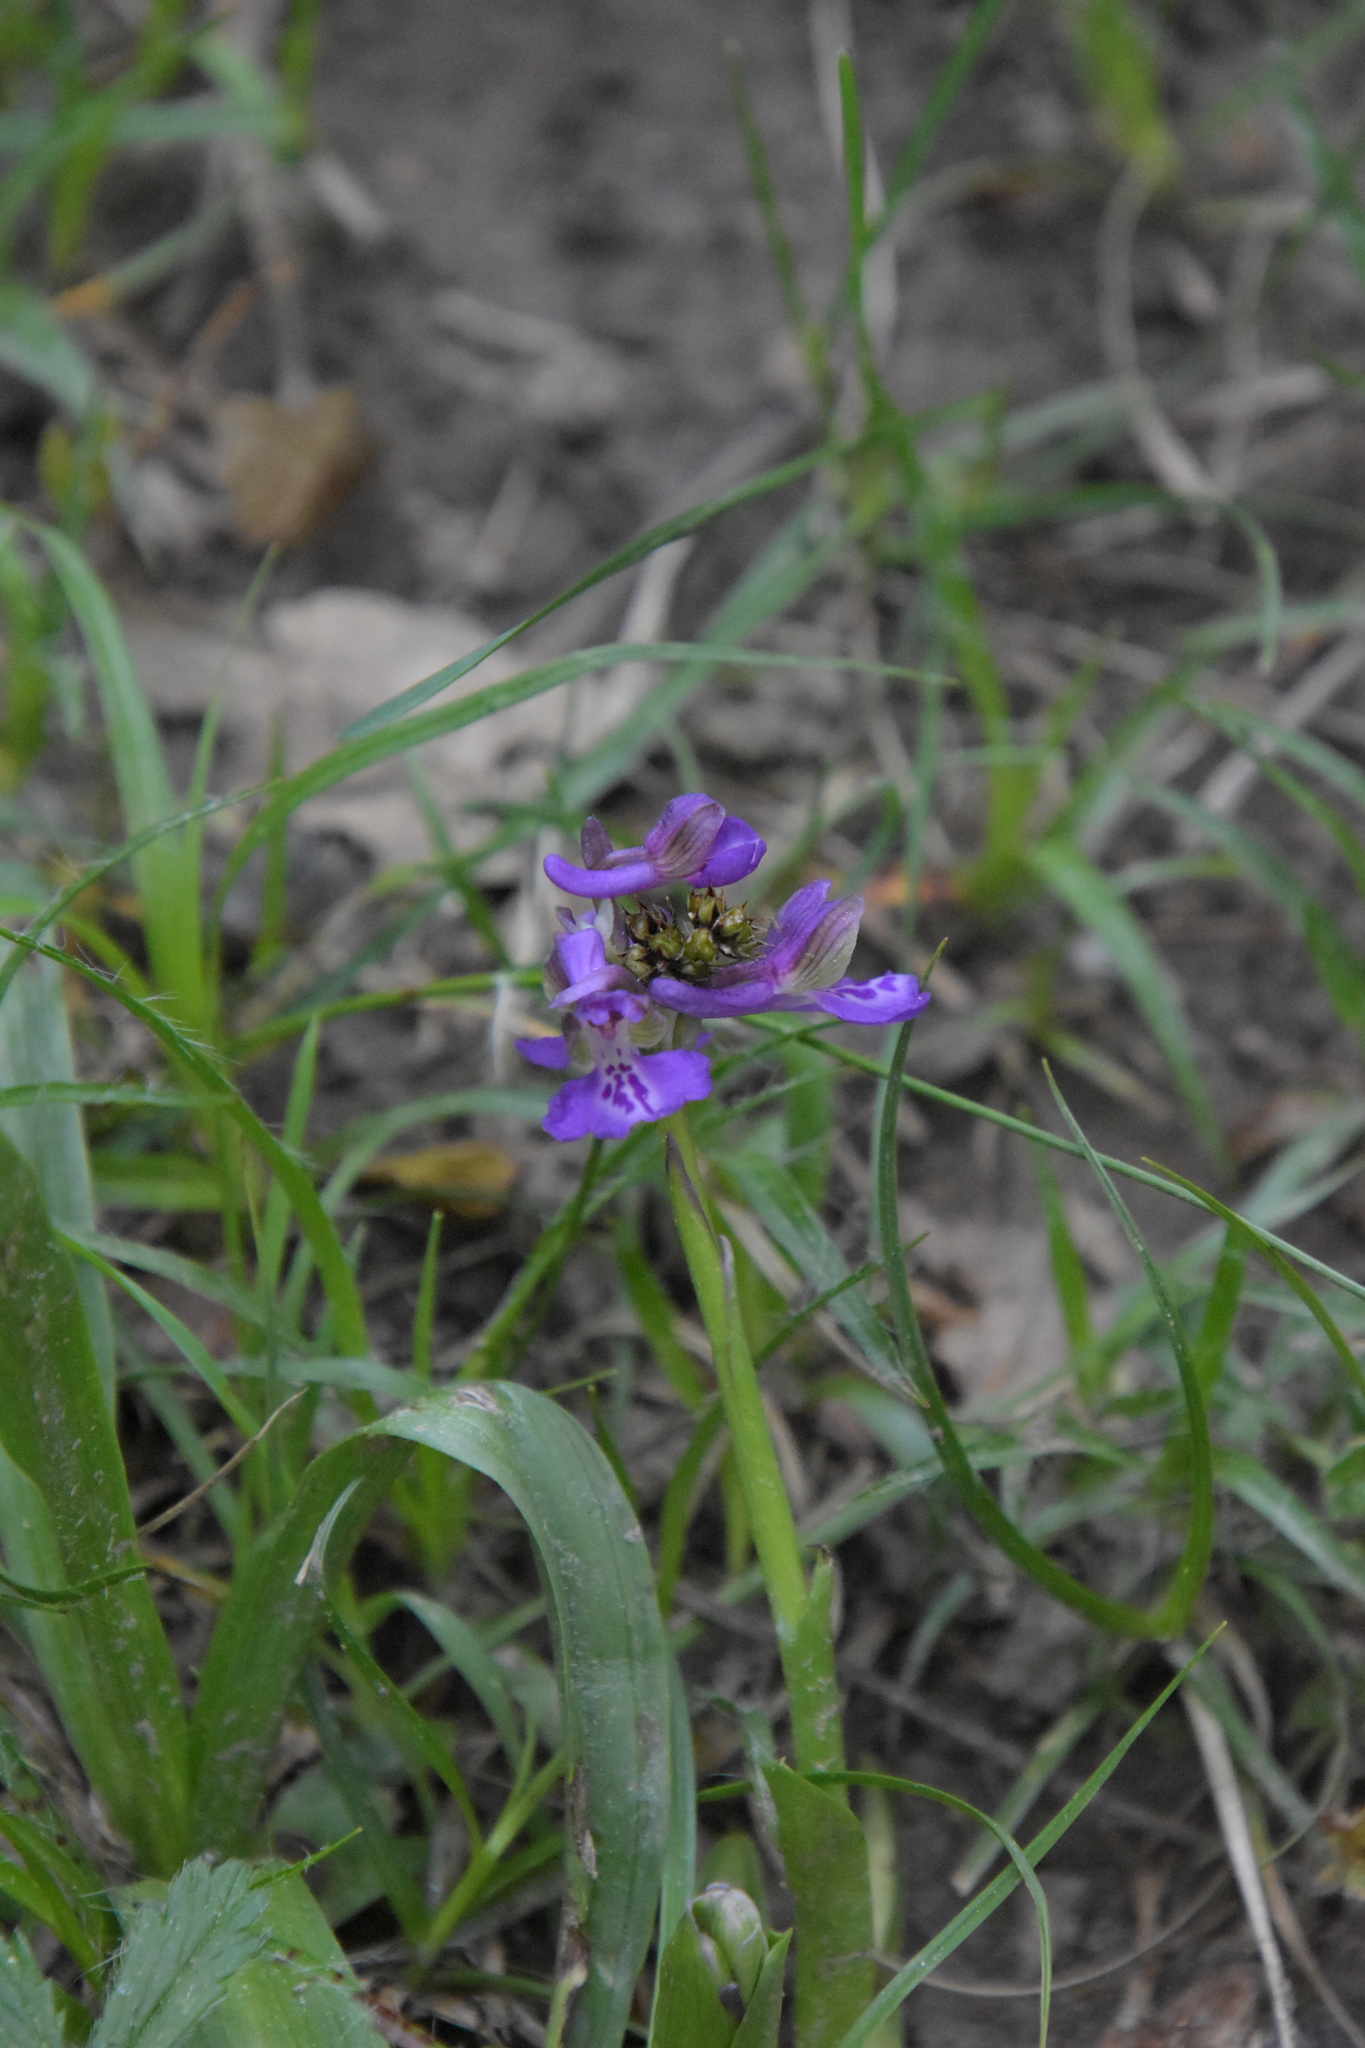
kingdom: Plantae
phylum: Tracheophyta
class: Liliopsida
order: Asparagales
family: Orchidaceae
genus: Anacamptis
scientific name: Anacamptis morio
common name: Green-winged orchid
